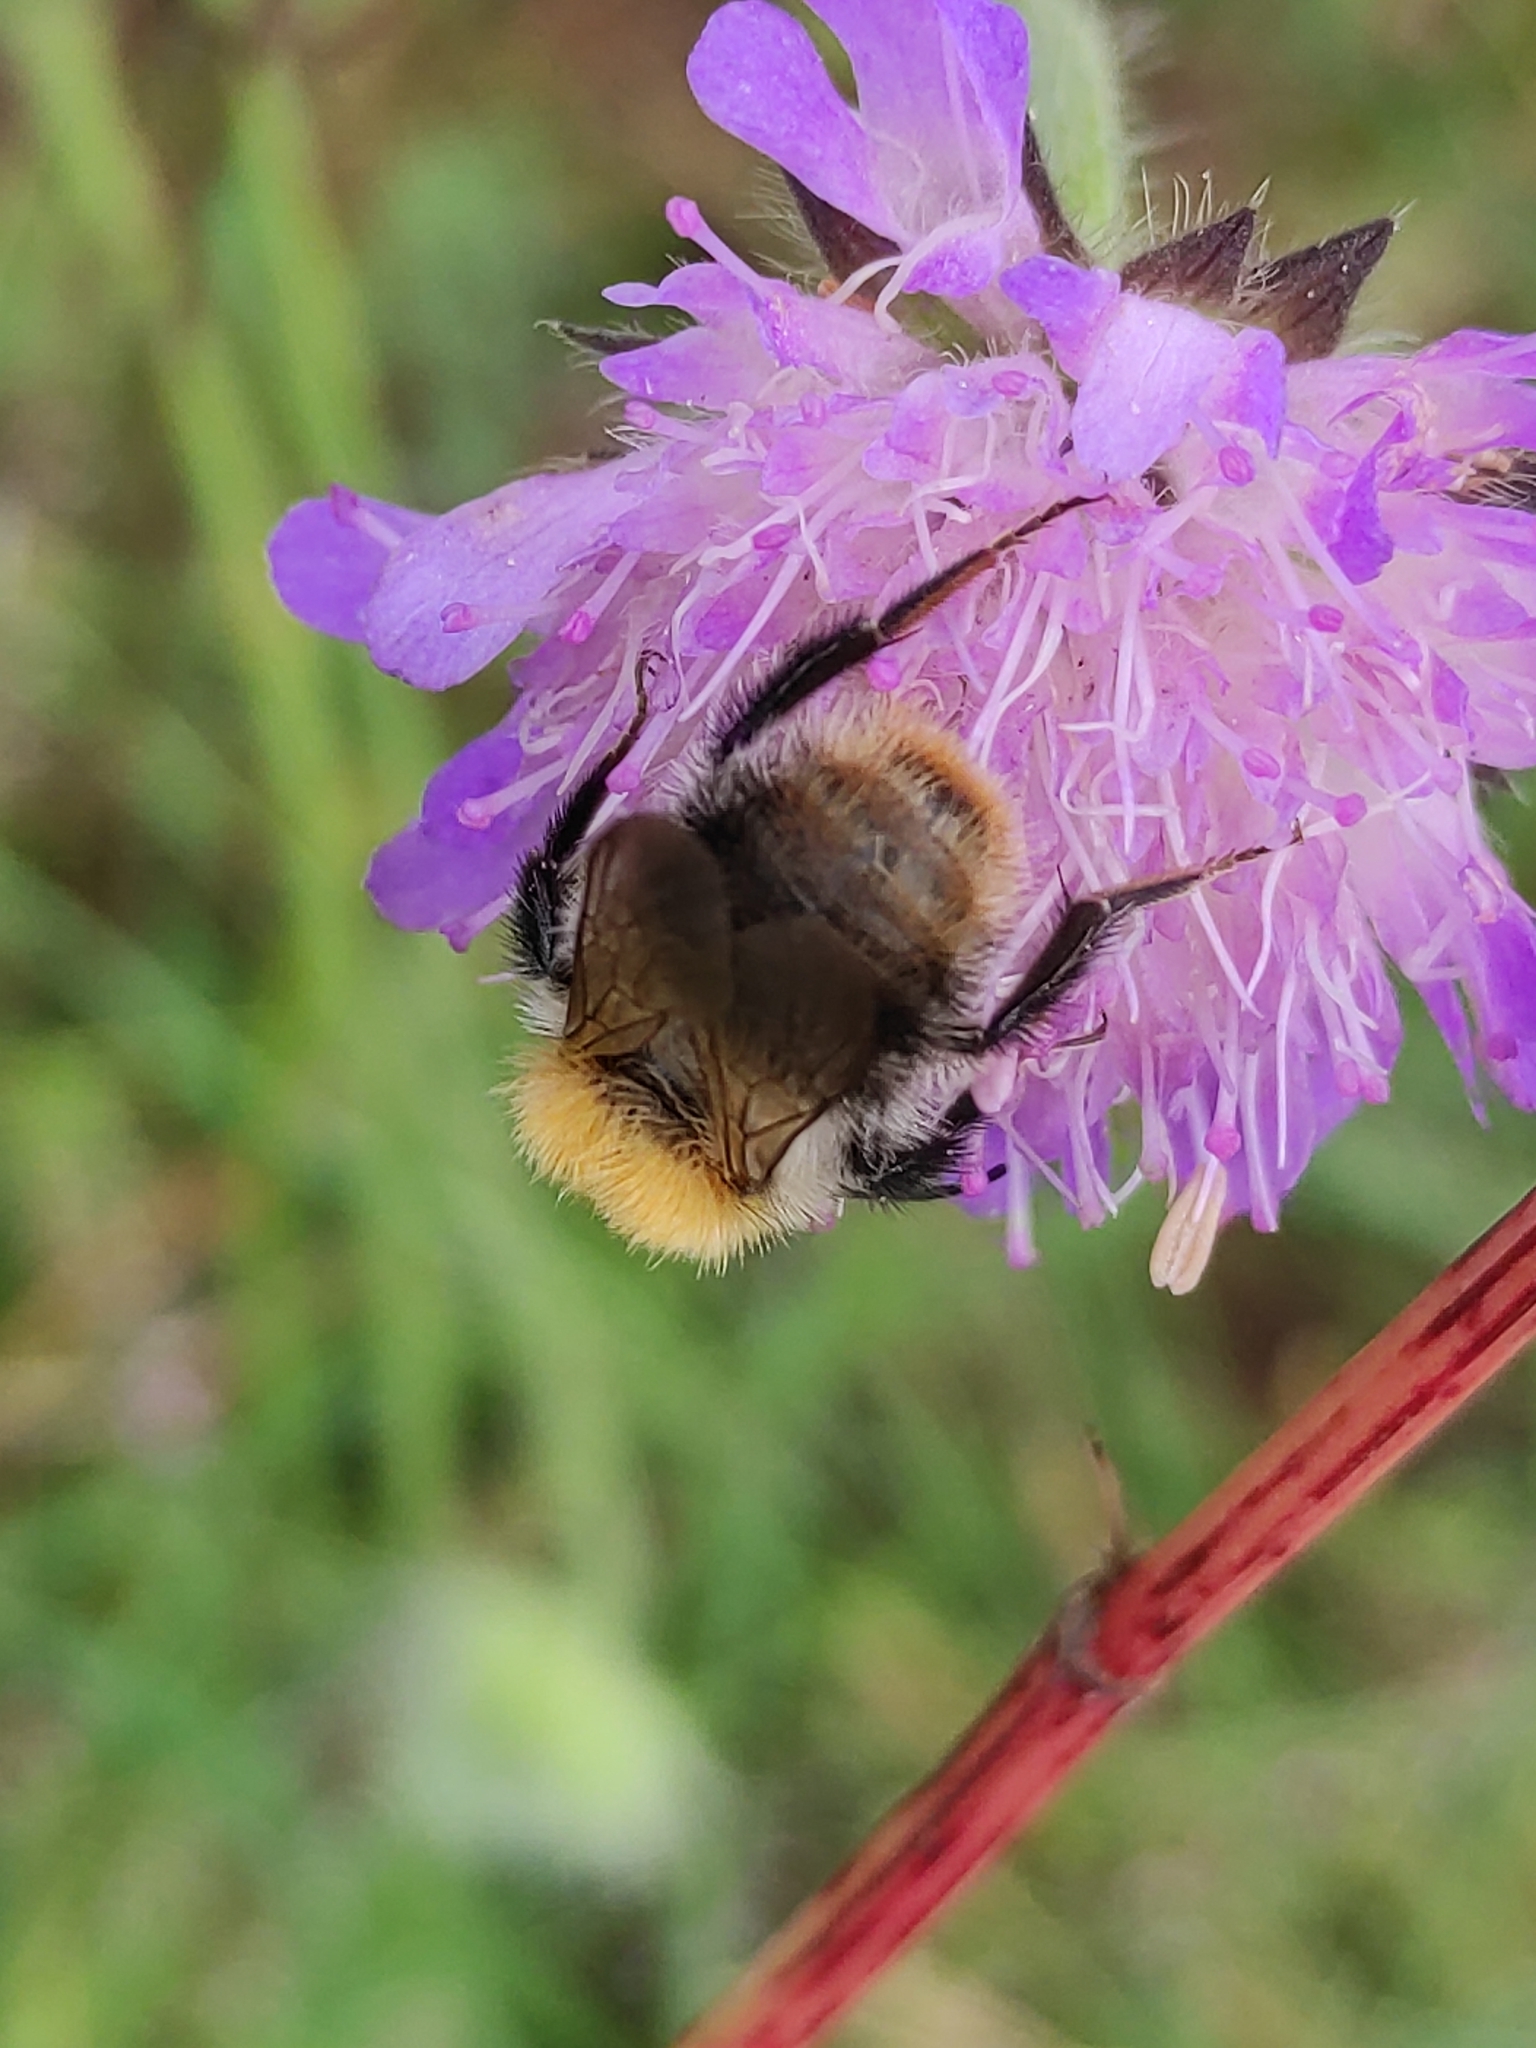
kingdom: Animalia
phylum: Arthropoda
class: Insecta
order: Hymenoptera
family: Apidae
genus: Bombus
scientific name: Bombus pascuorum
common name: Common carder bee
